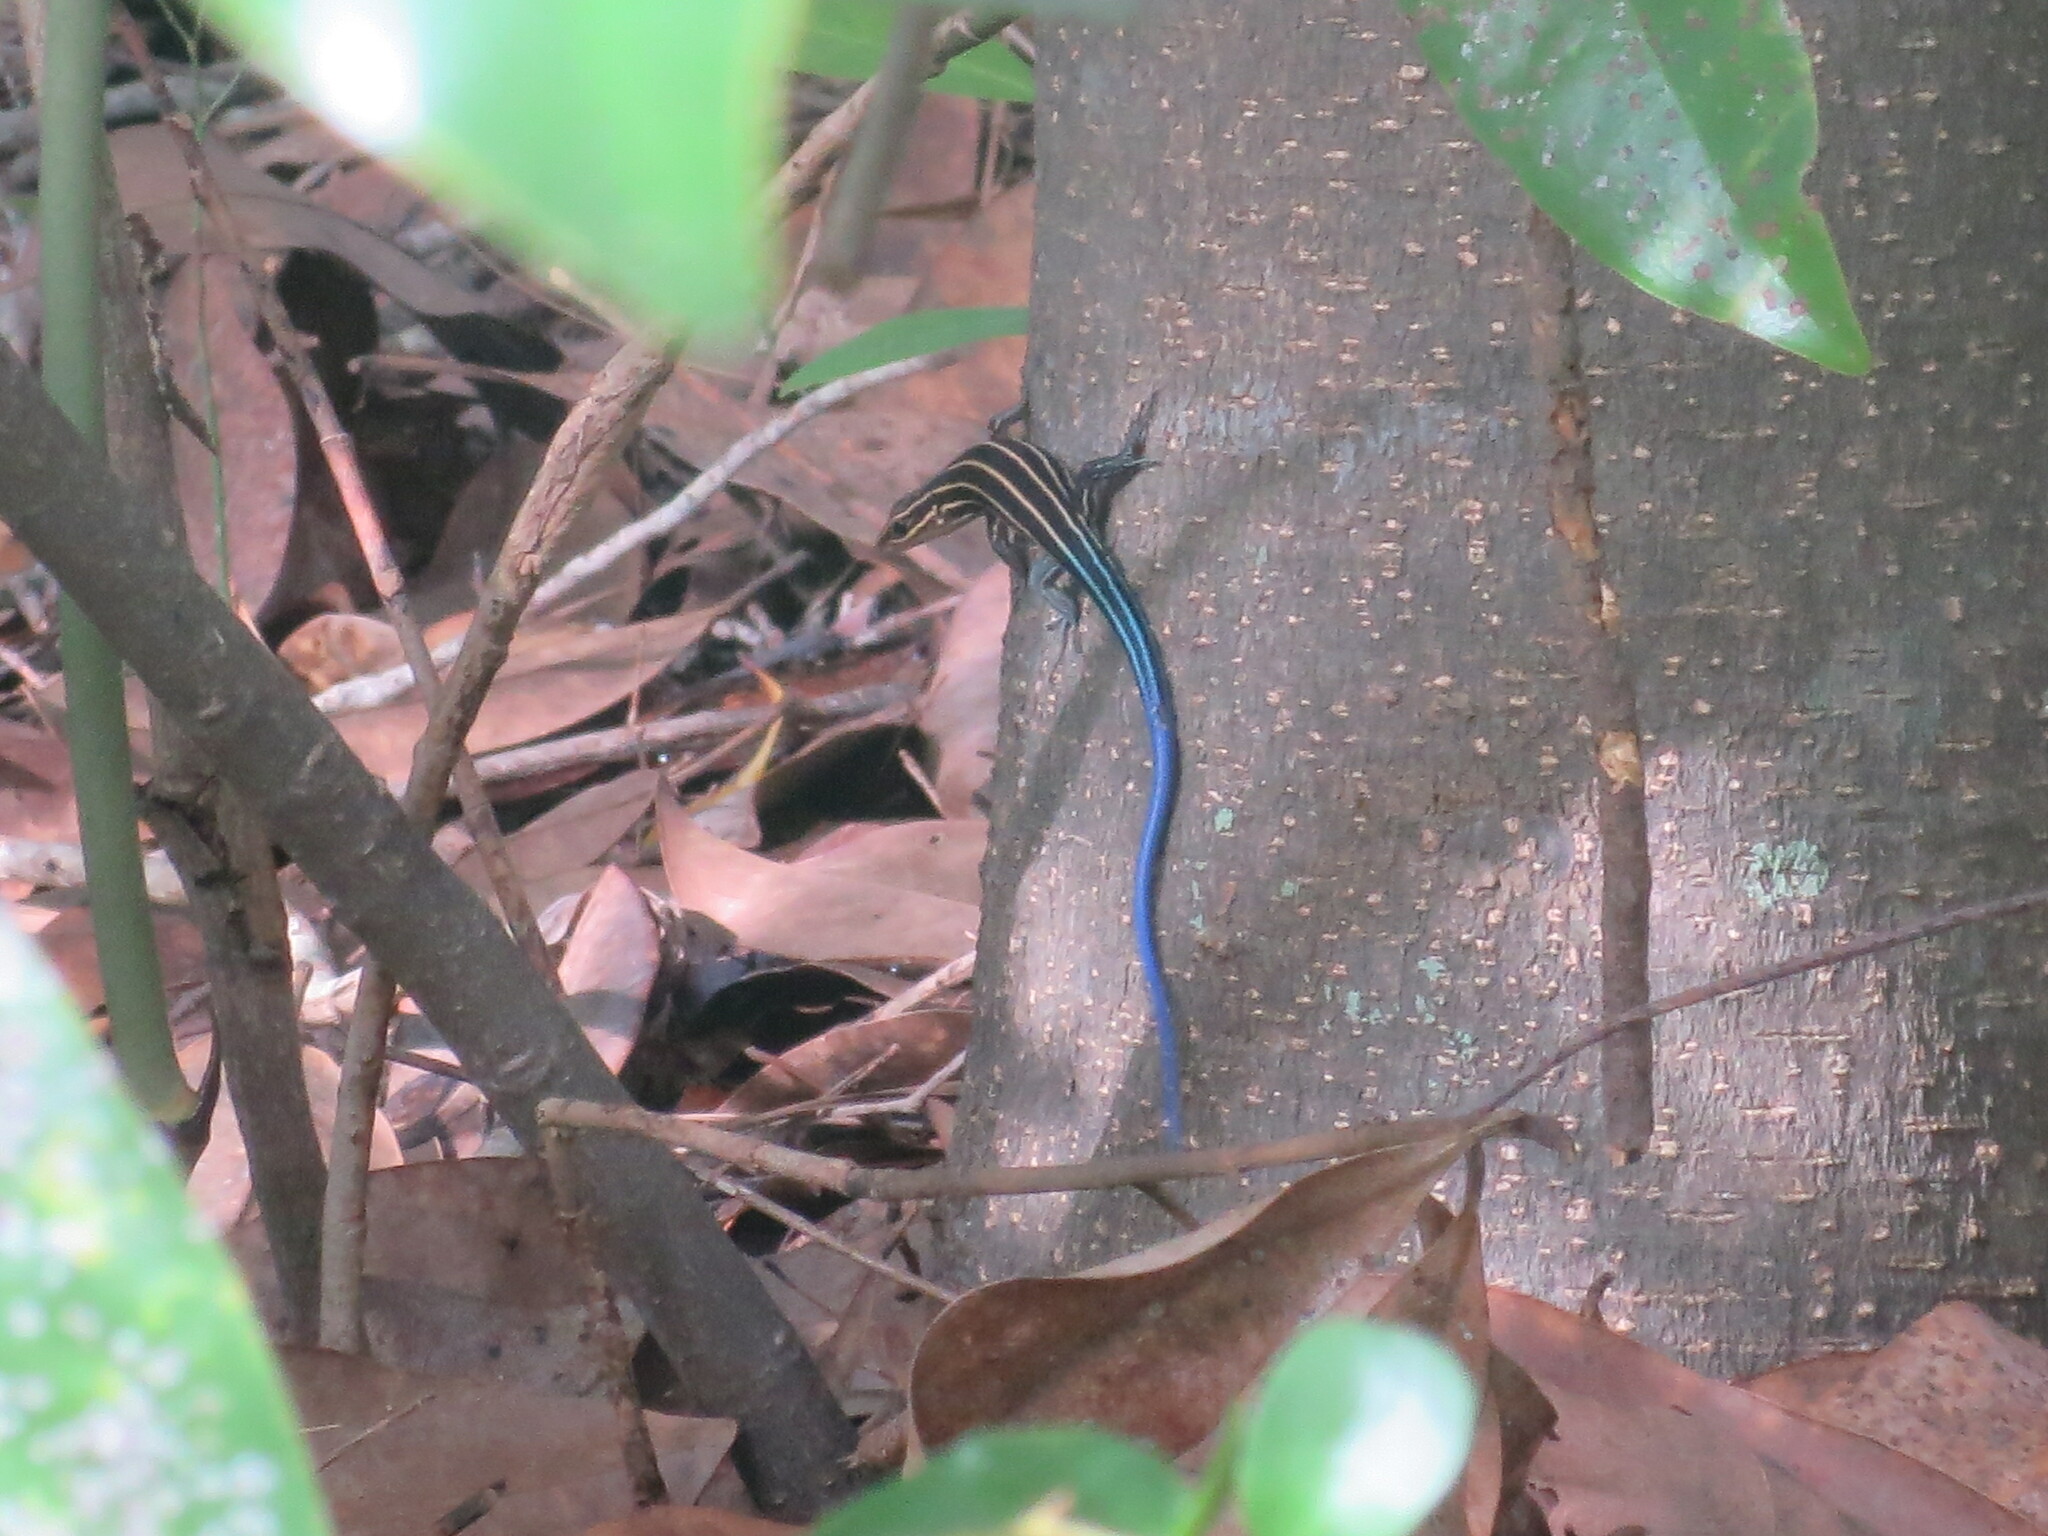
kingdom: Animalia
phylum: Chordata
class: Squamata
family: Scincidae
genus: Plestiodon
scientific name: Plestiodon laticeps
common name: Broadhead skink
